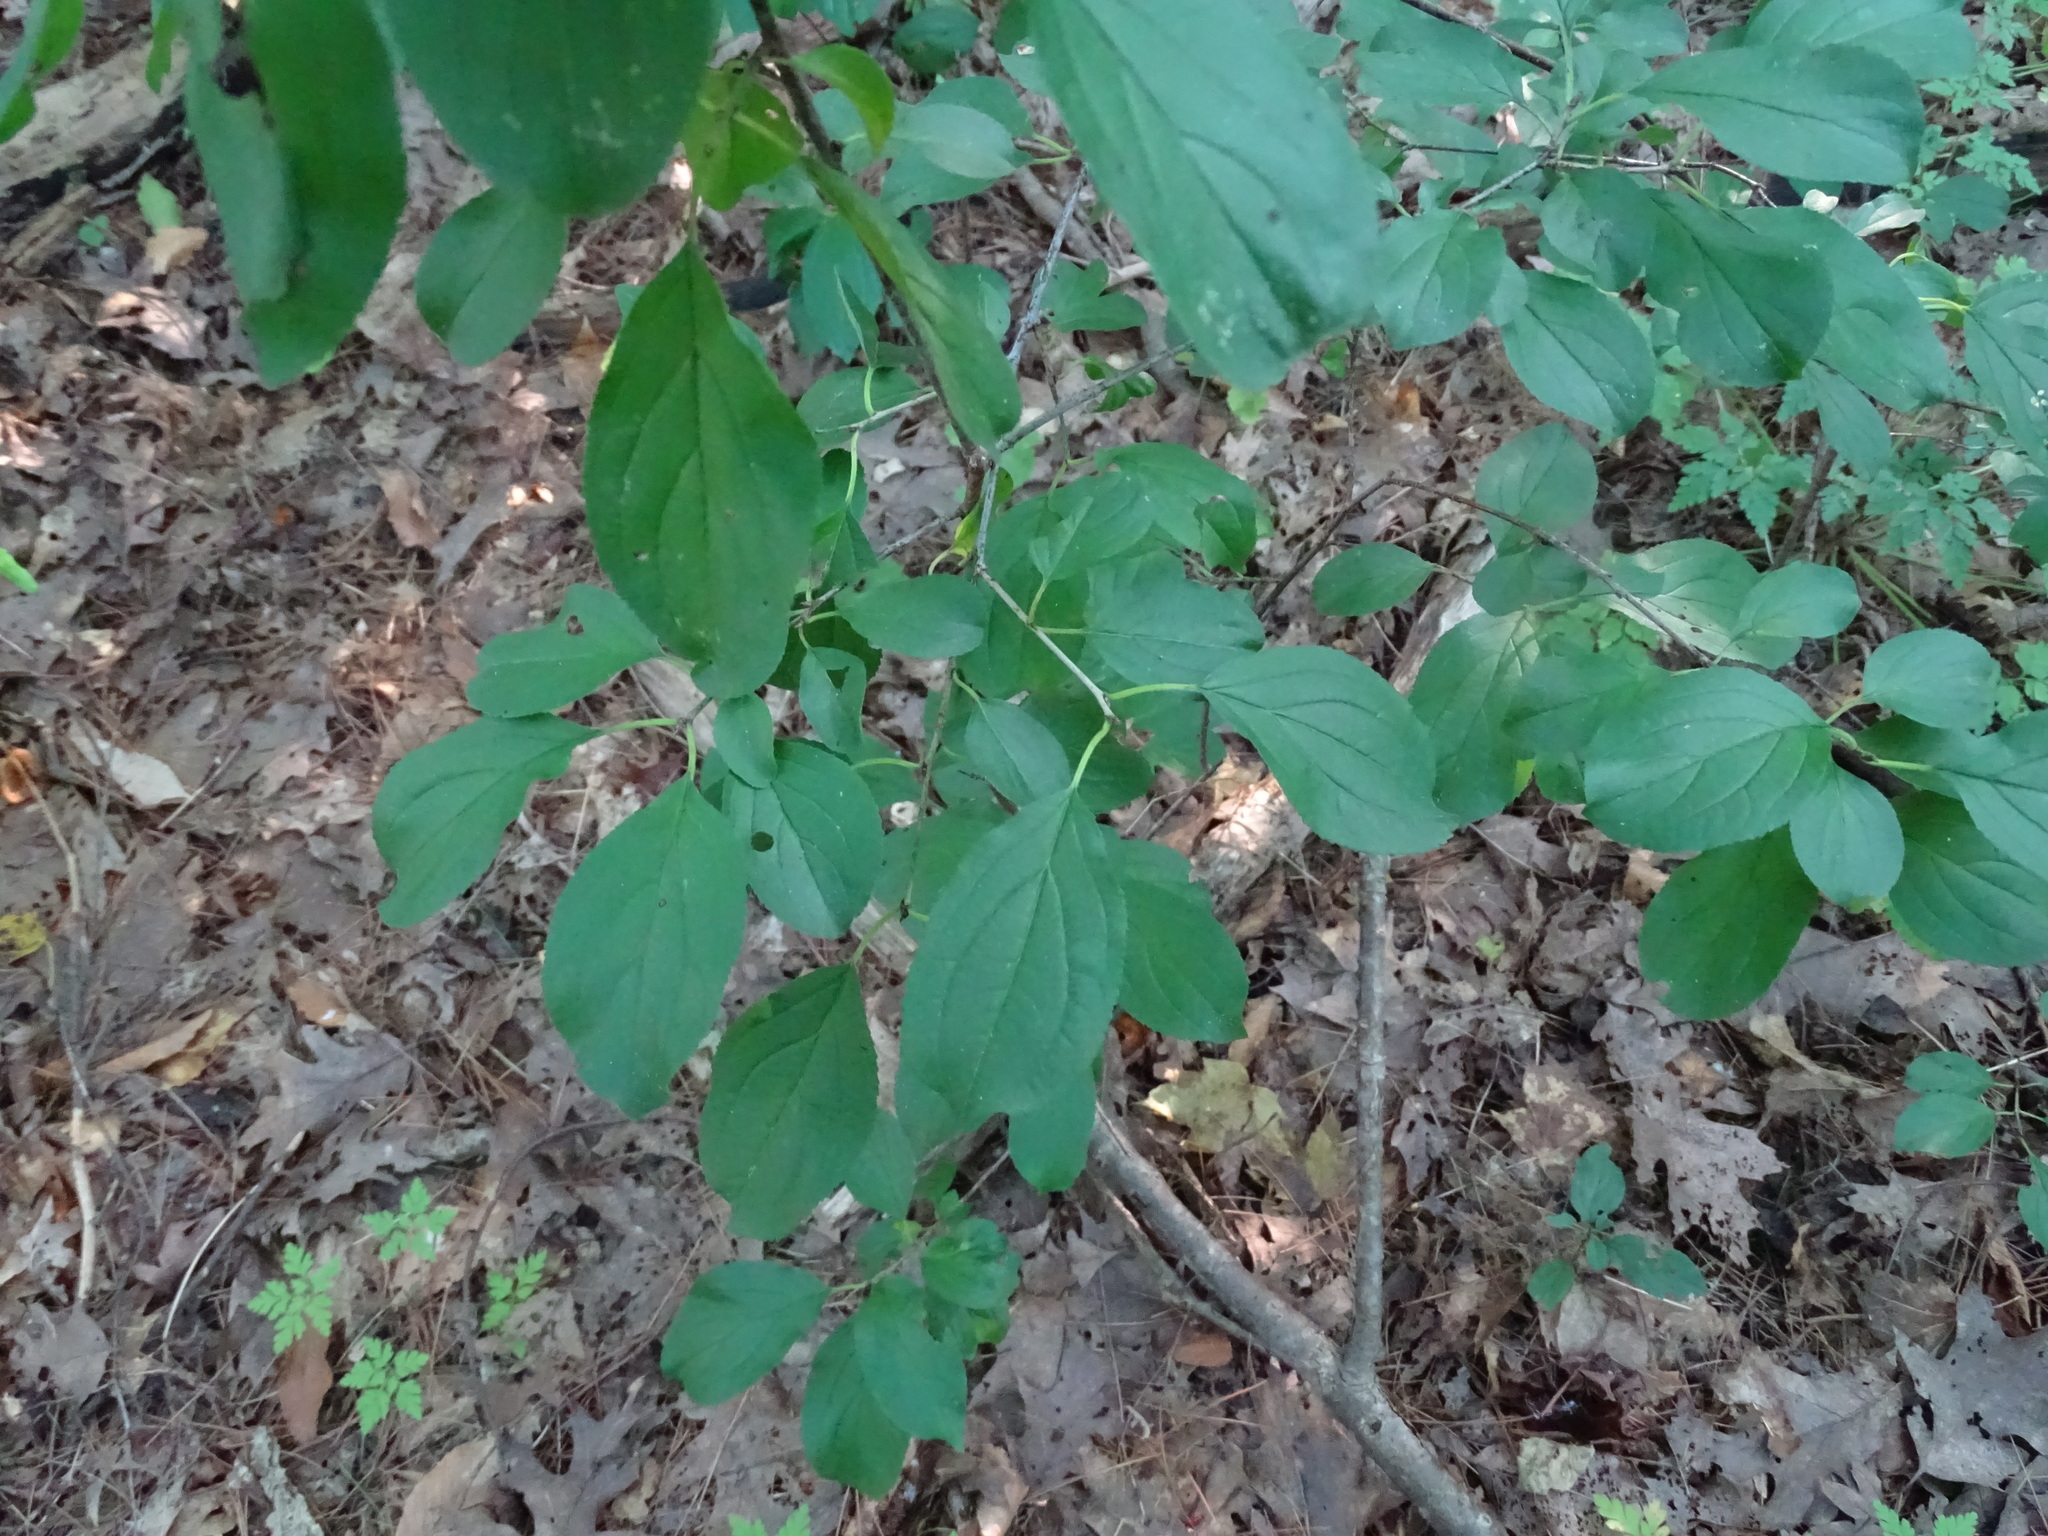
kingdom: Plantae
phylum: Tracheophyta
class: Magnoliopsida
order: Rosales
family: Rhamnaceae
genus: Rhamnus
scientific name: Rhamnus cathartica
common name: Common buckthorn
